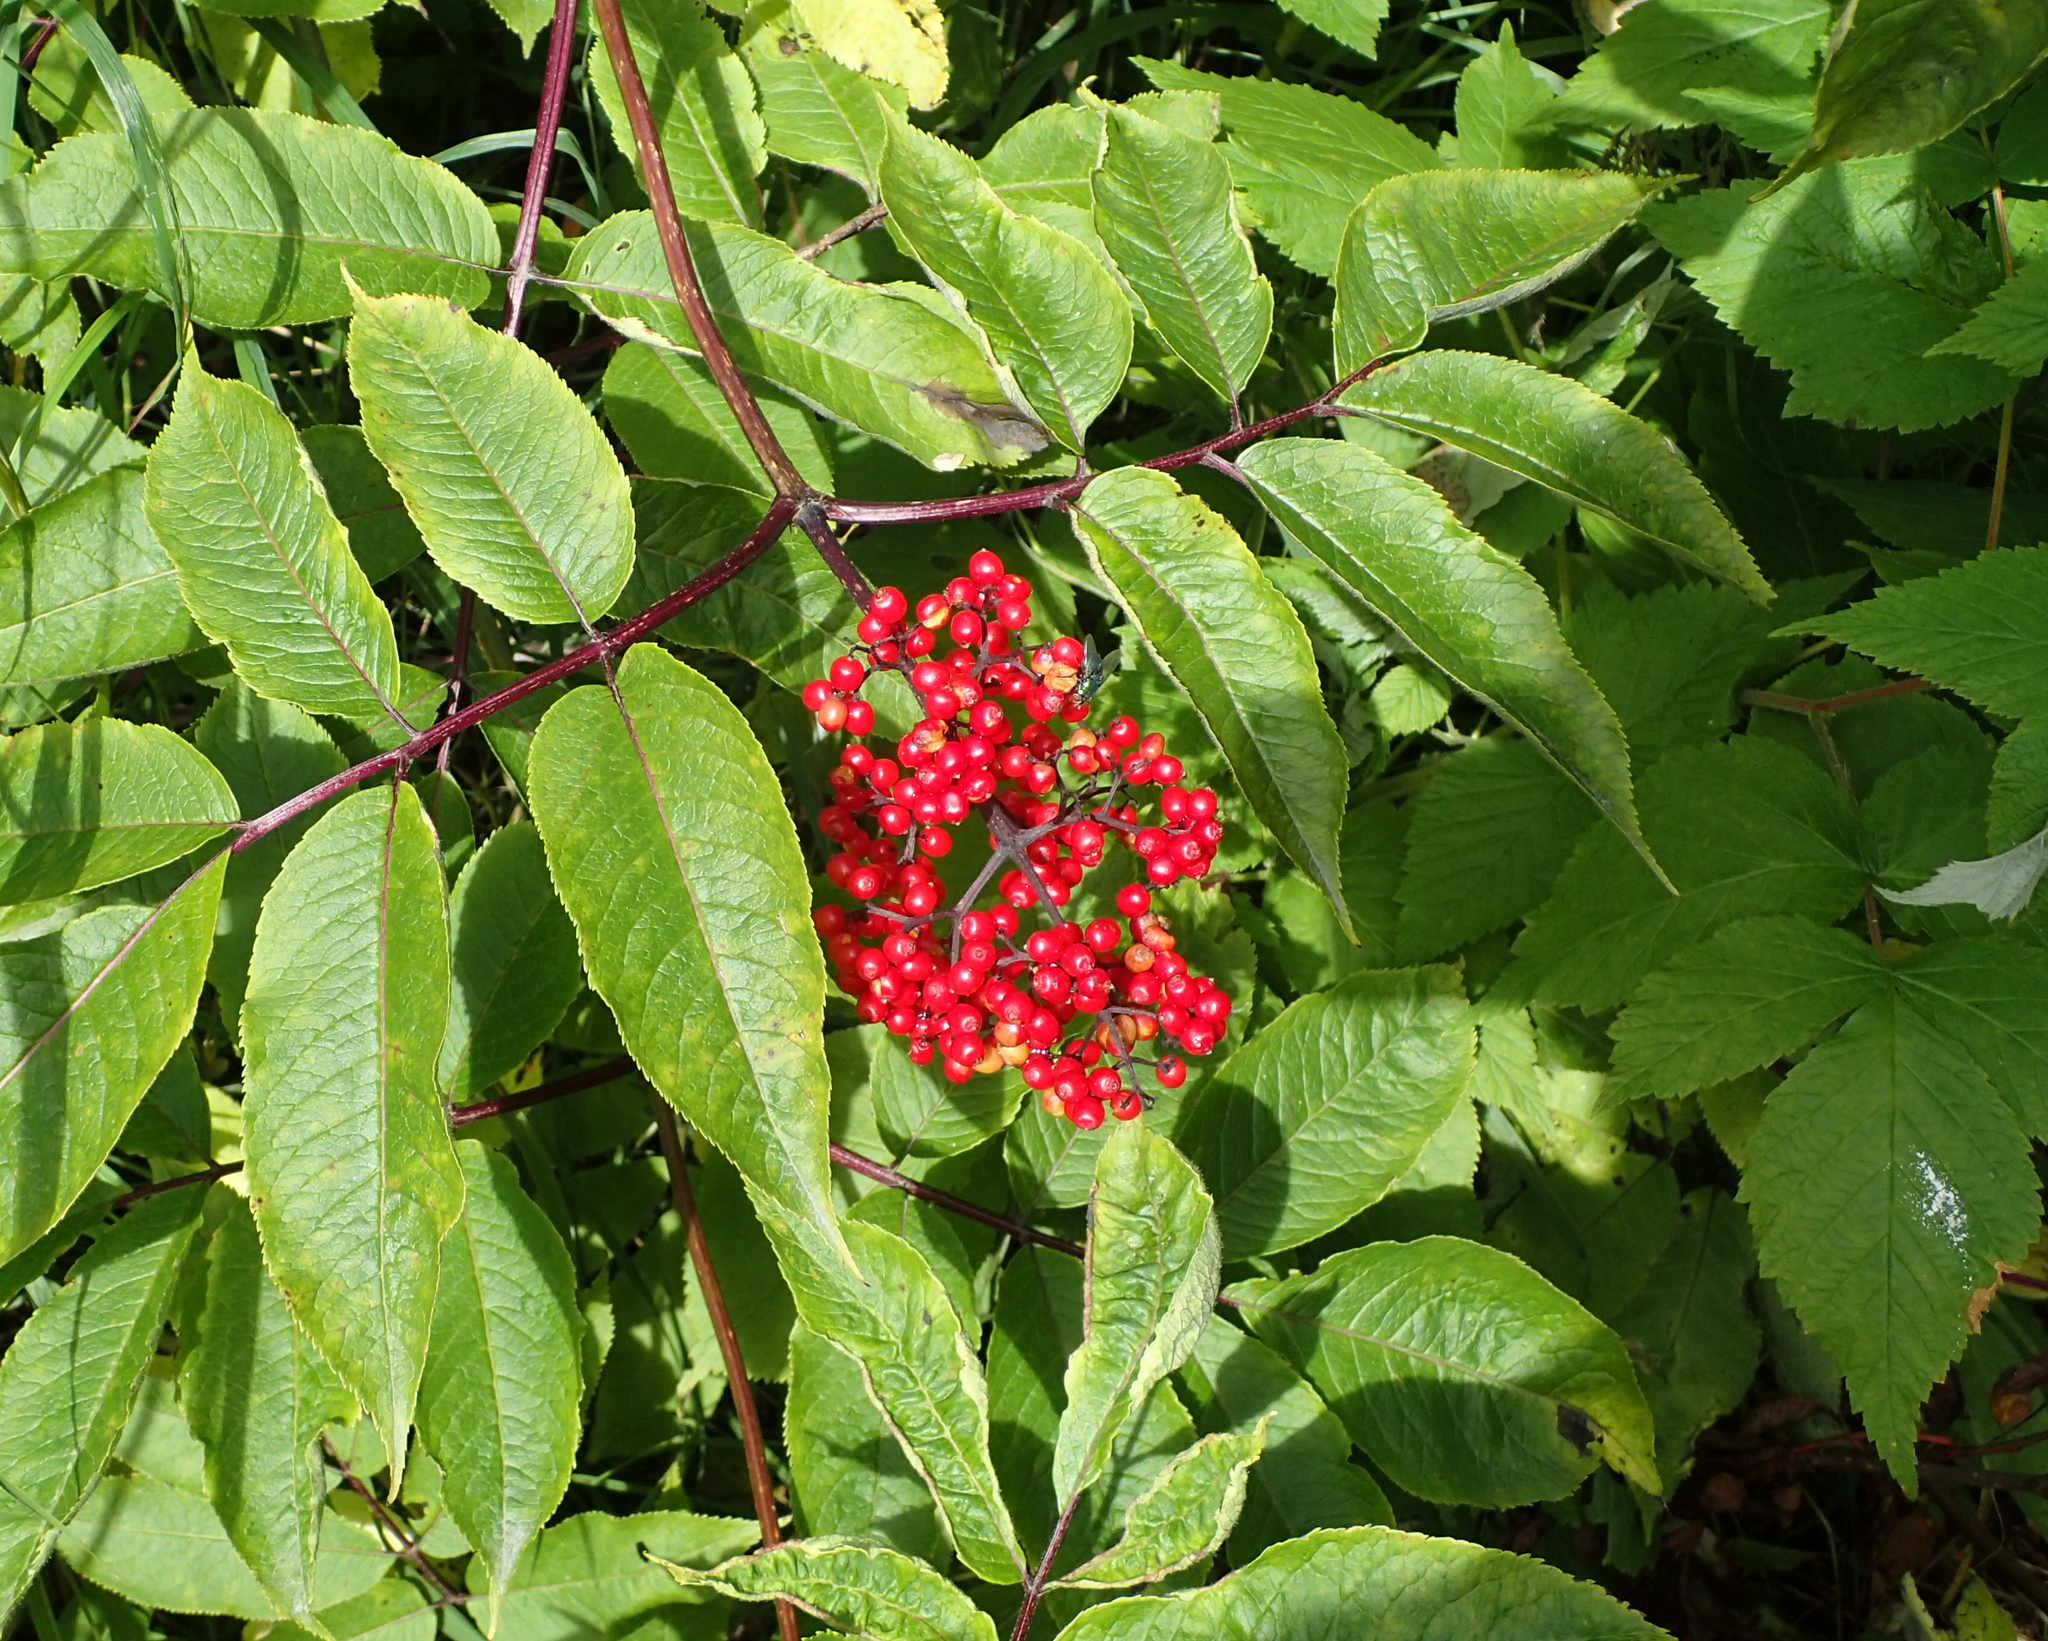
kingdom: Plantae
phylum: Tracheophyta
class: Magnoliopsida
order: Dipsacales
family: Viburnaceae
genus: Sambucus
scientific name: Sambucus racemosa
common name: Red-berried elder
